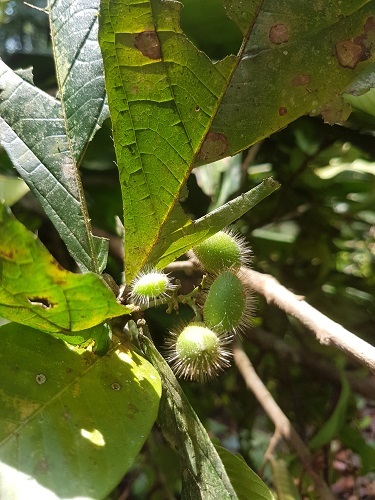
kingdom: Plantae
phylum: Tracheophyta
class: Magnoliopsida
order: Boraginales
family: Cordiaceae
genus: Cordia
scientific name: Cordia nodosa
